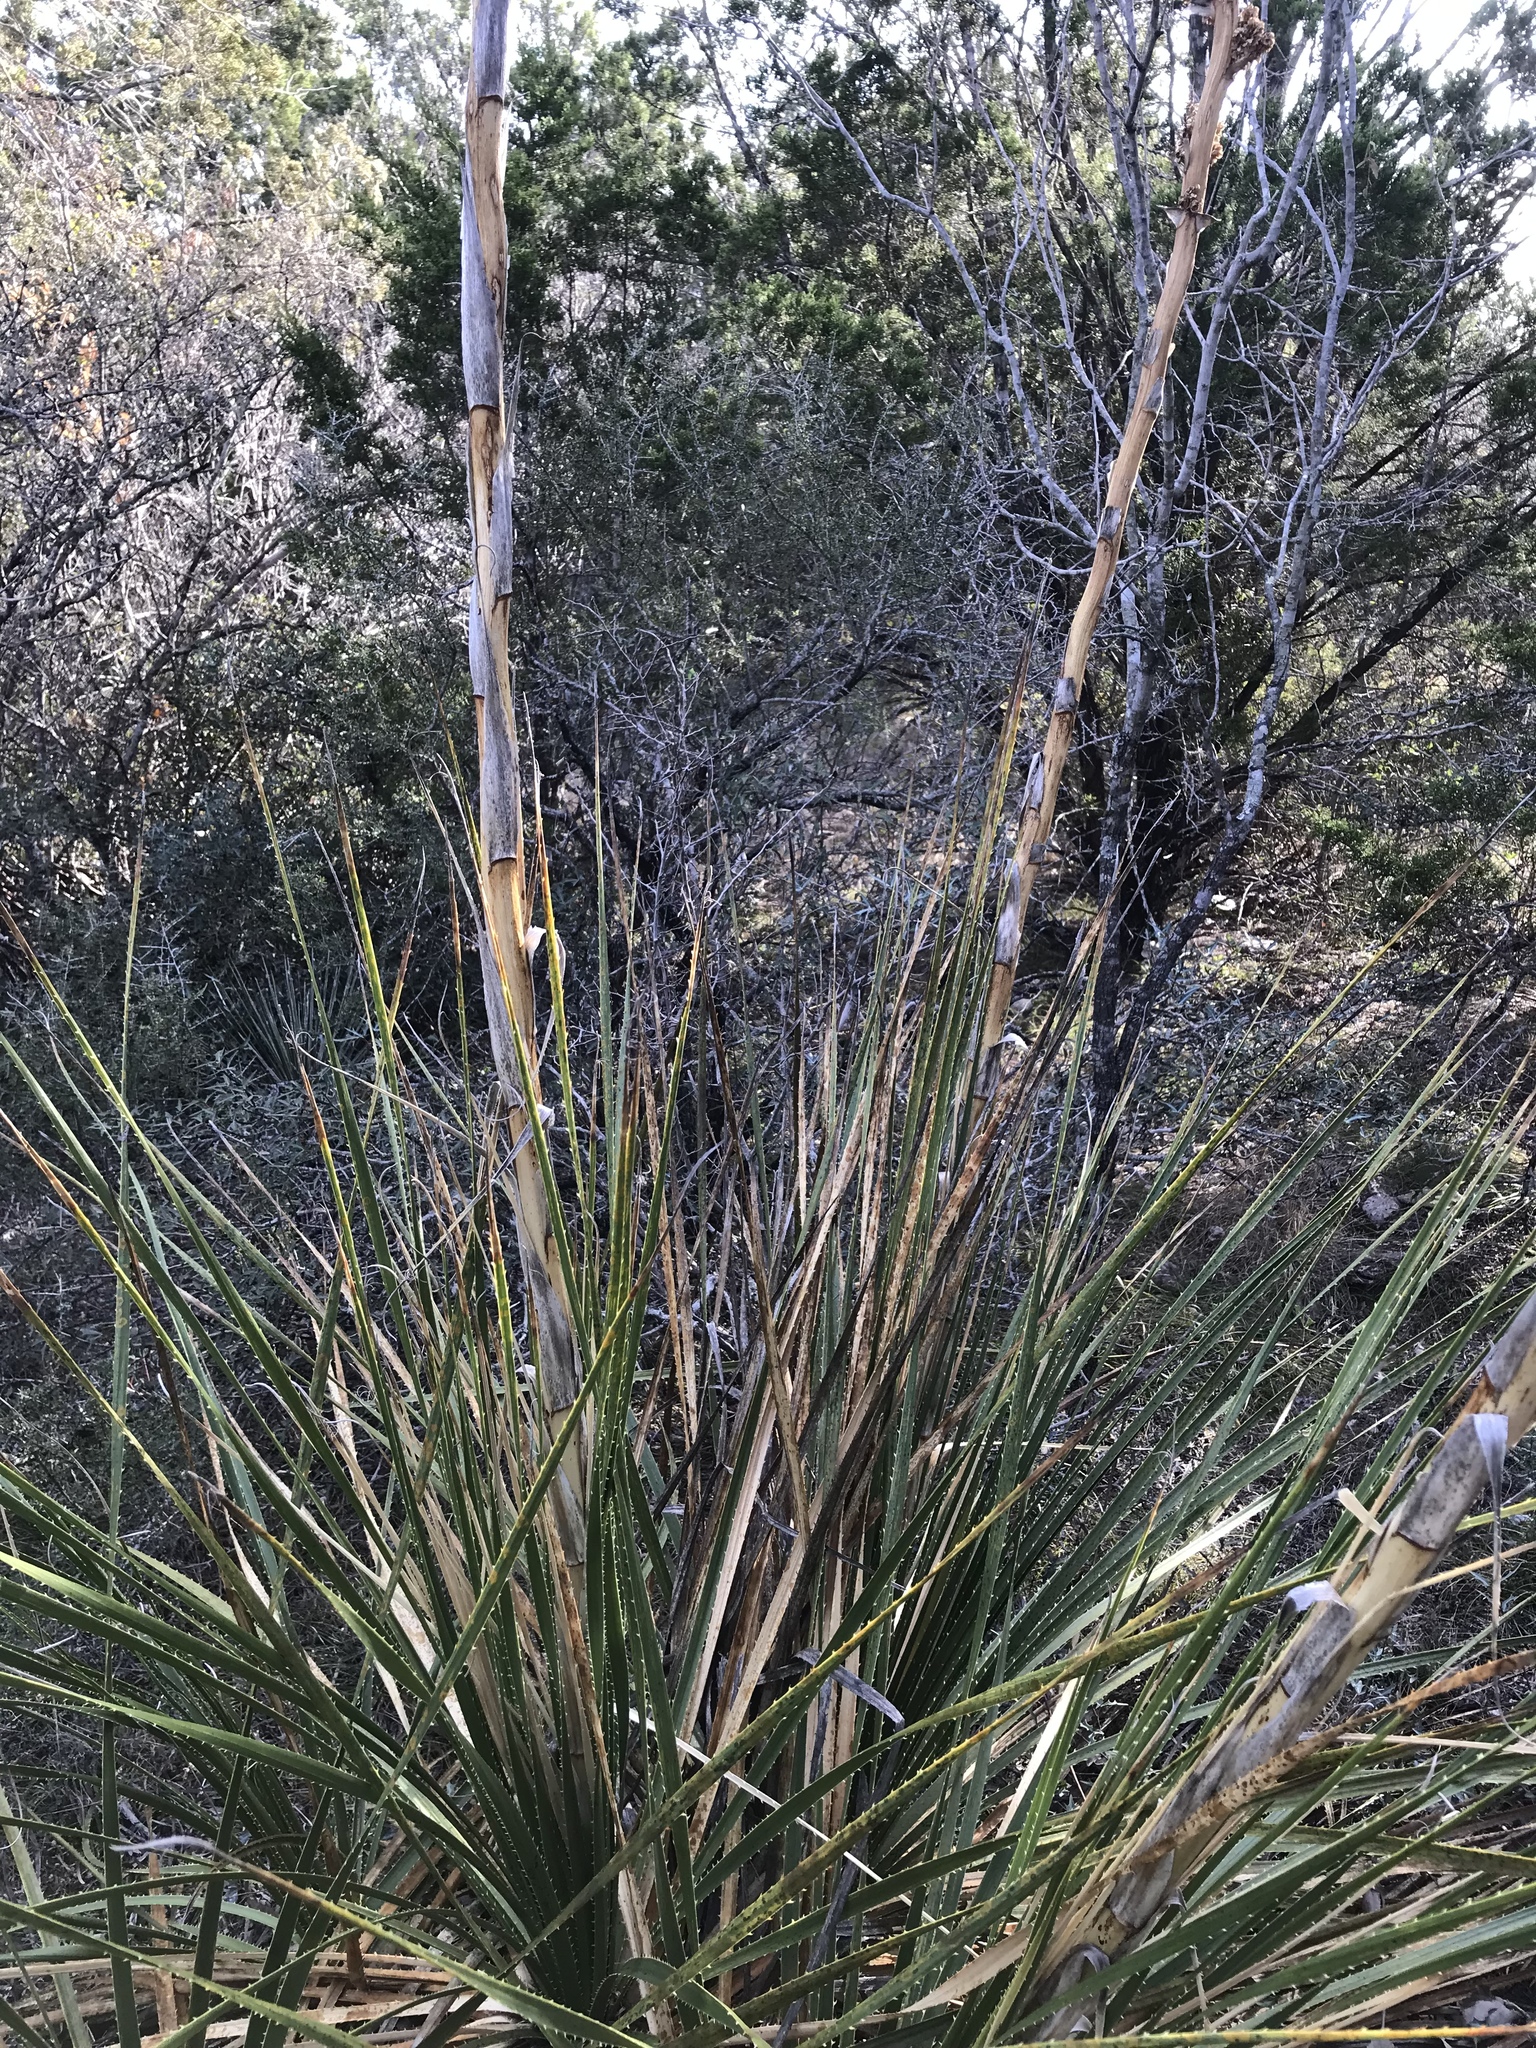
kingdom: Plantae
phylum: Tracheophyta
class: Liliopsida
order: Asparagales
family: Asparagaceae
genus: Dasylirion
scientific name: Dasylirion texanum
